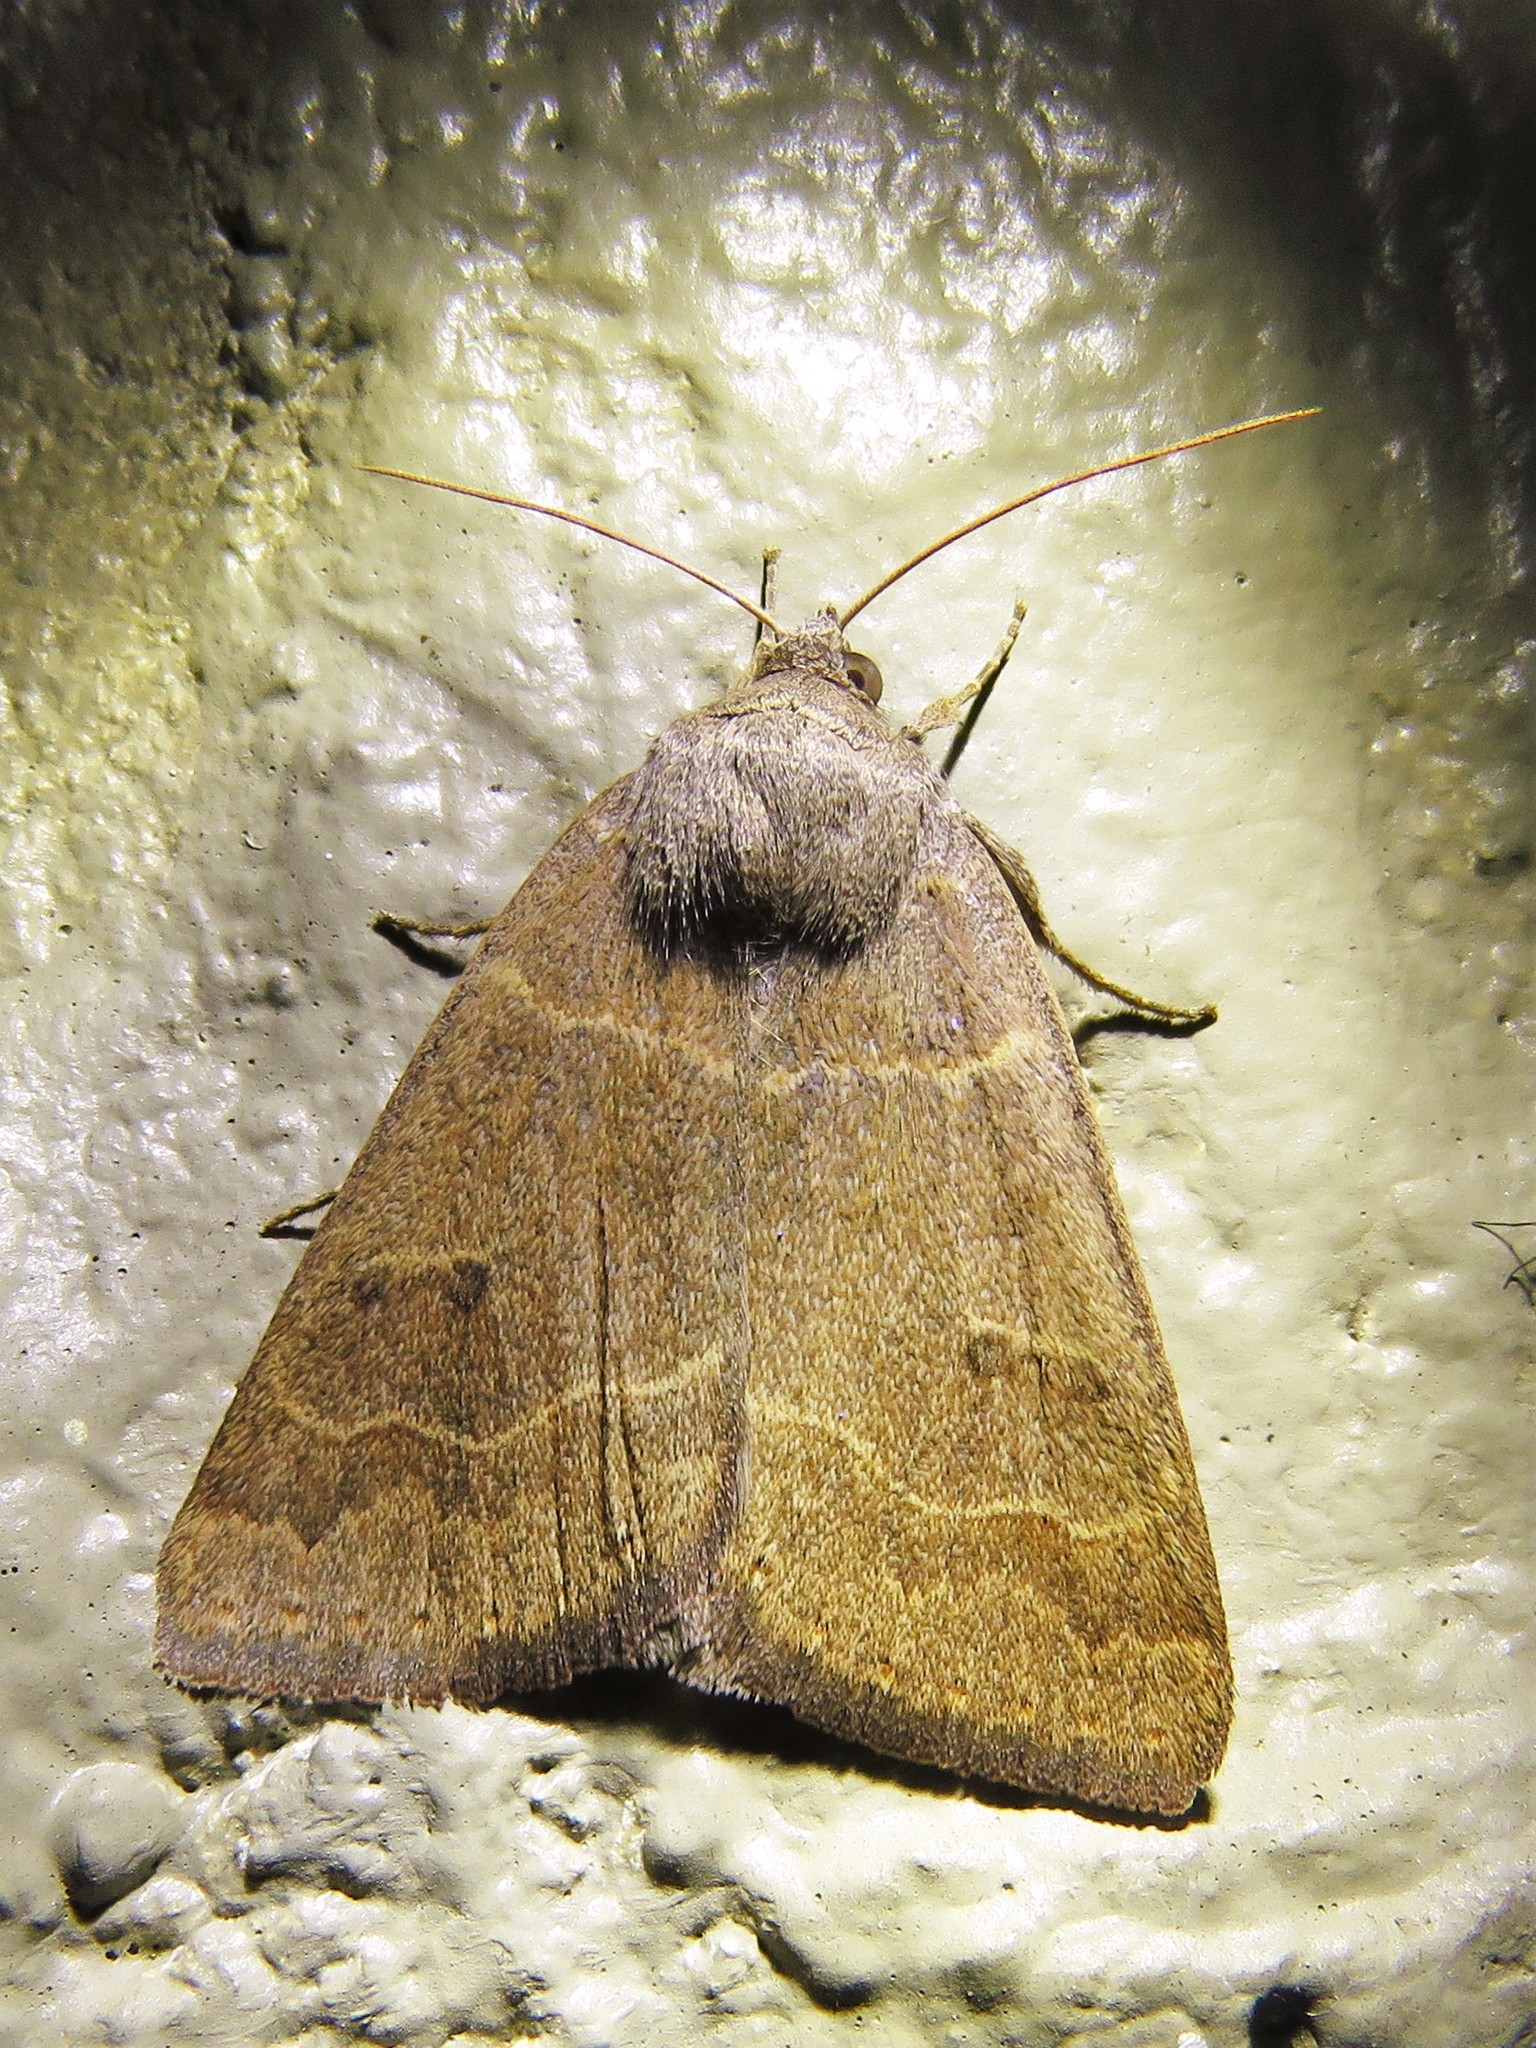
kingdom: Animalia
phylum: Arthropoda
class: Insecta
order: Lepidoptera
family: Erebidae
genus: Phoberia
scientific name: Phoberia atomaris
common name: Common oak moth
